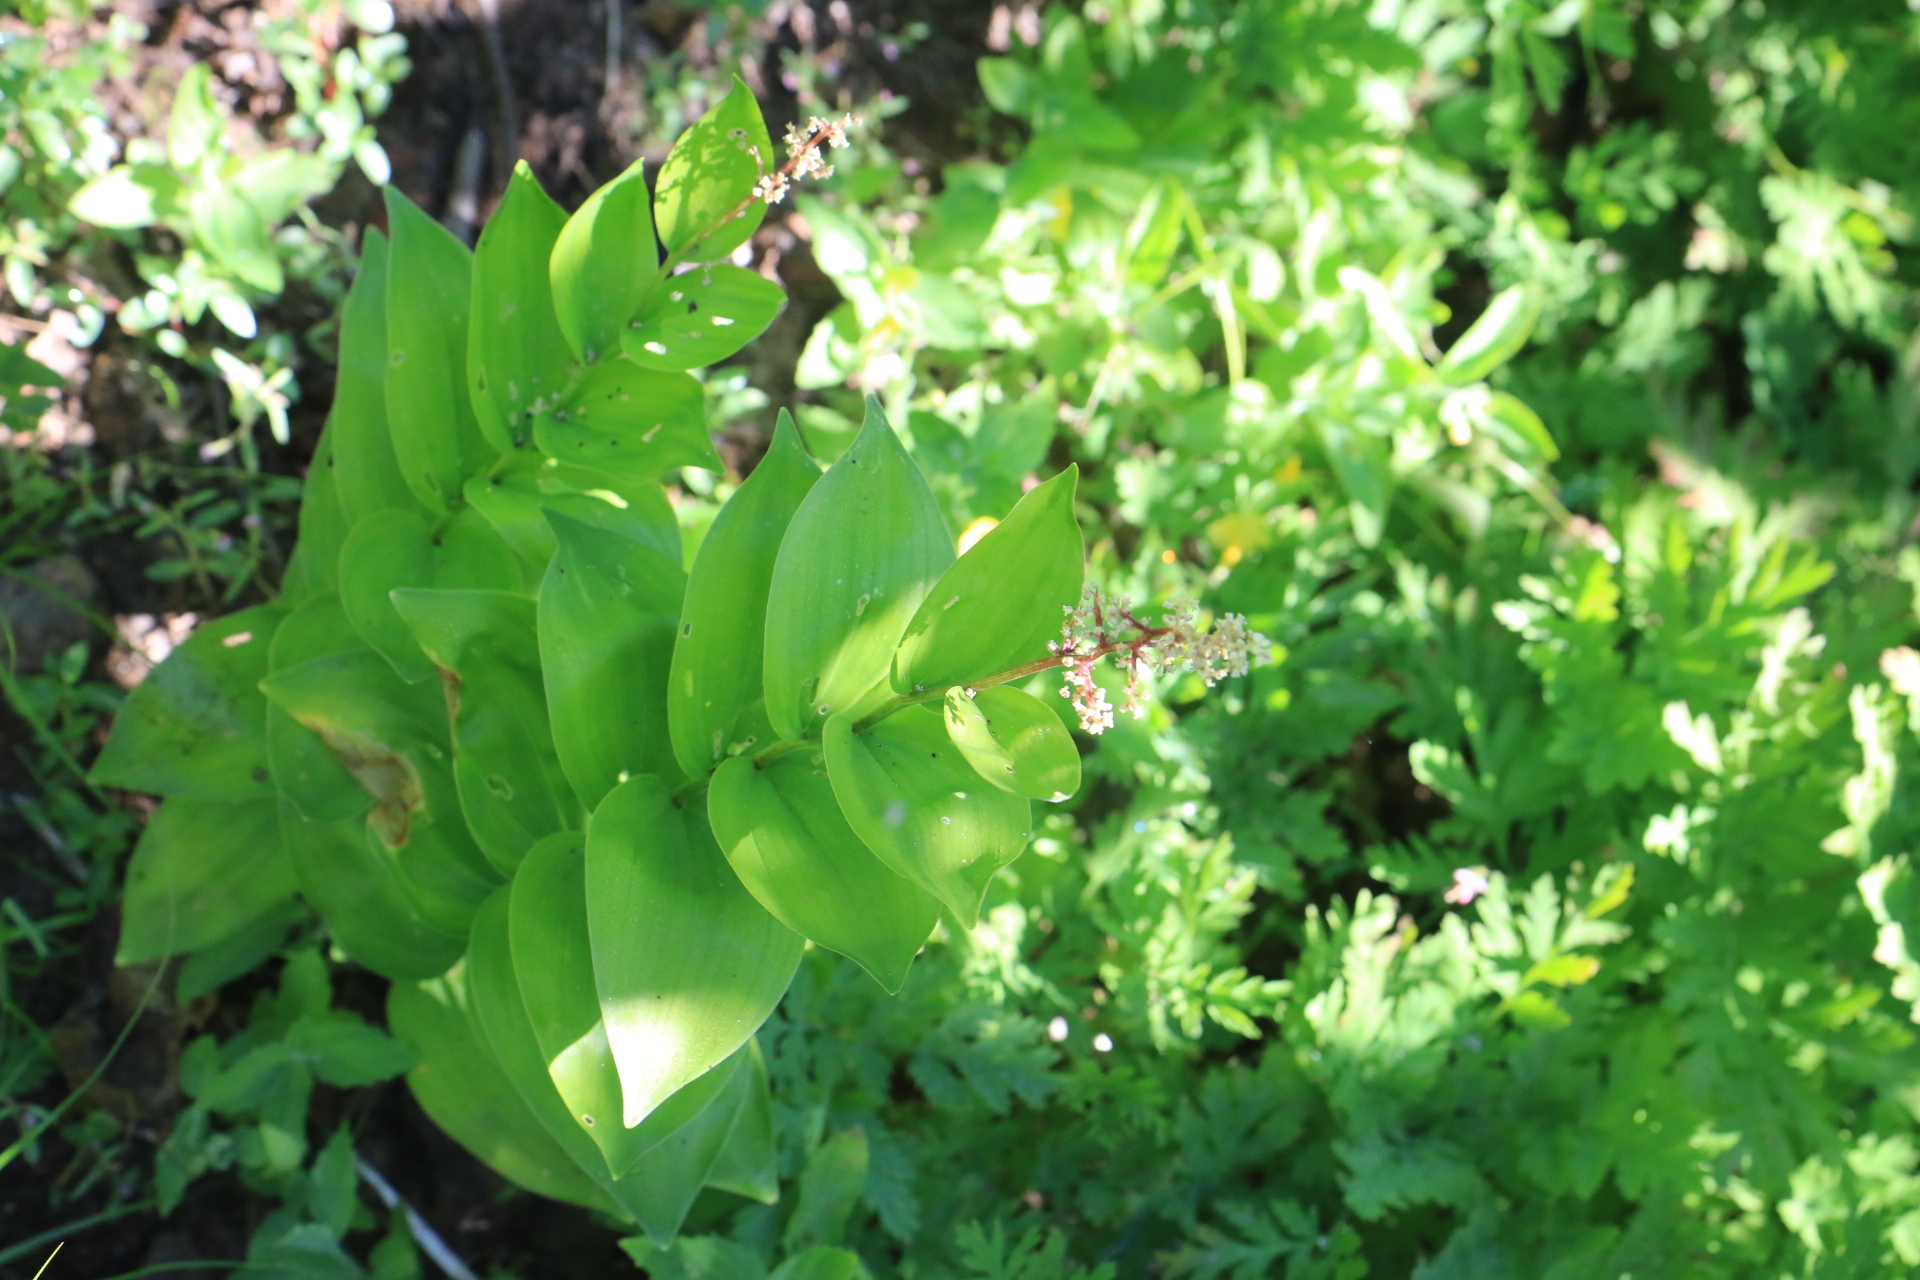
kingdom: Plantae
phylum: Tracheophyta
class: Liliopsida
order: Asparagales
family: Asparagaceae
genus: Maianthemum
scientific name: Maianthemum racemosum
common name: False spikenard
